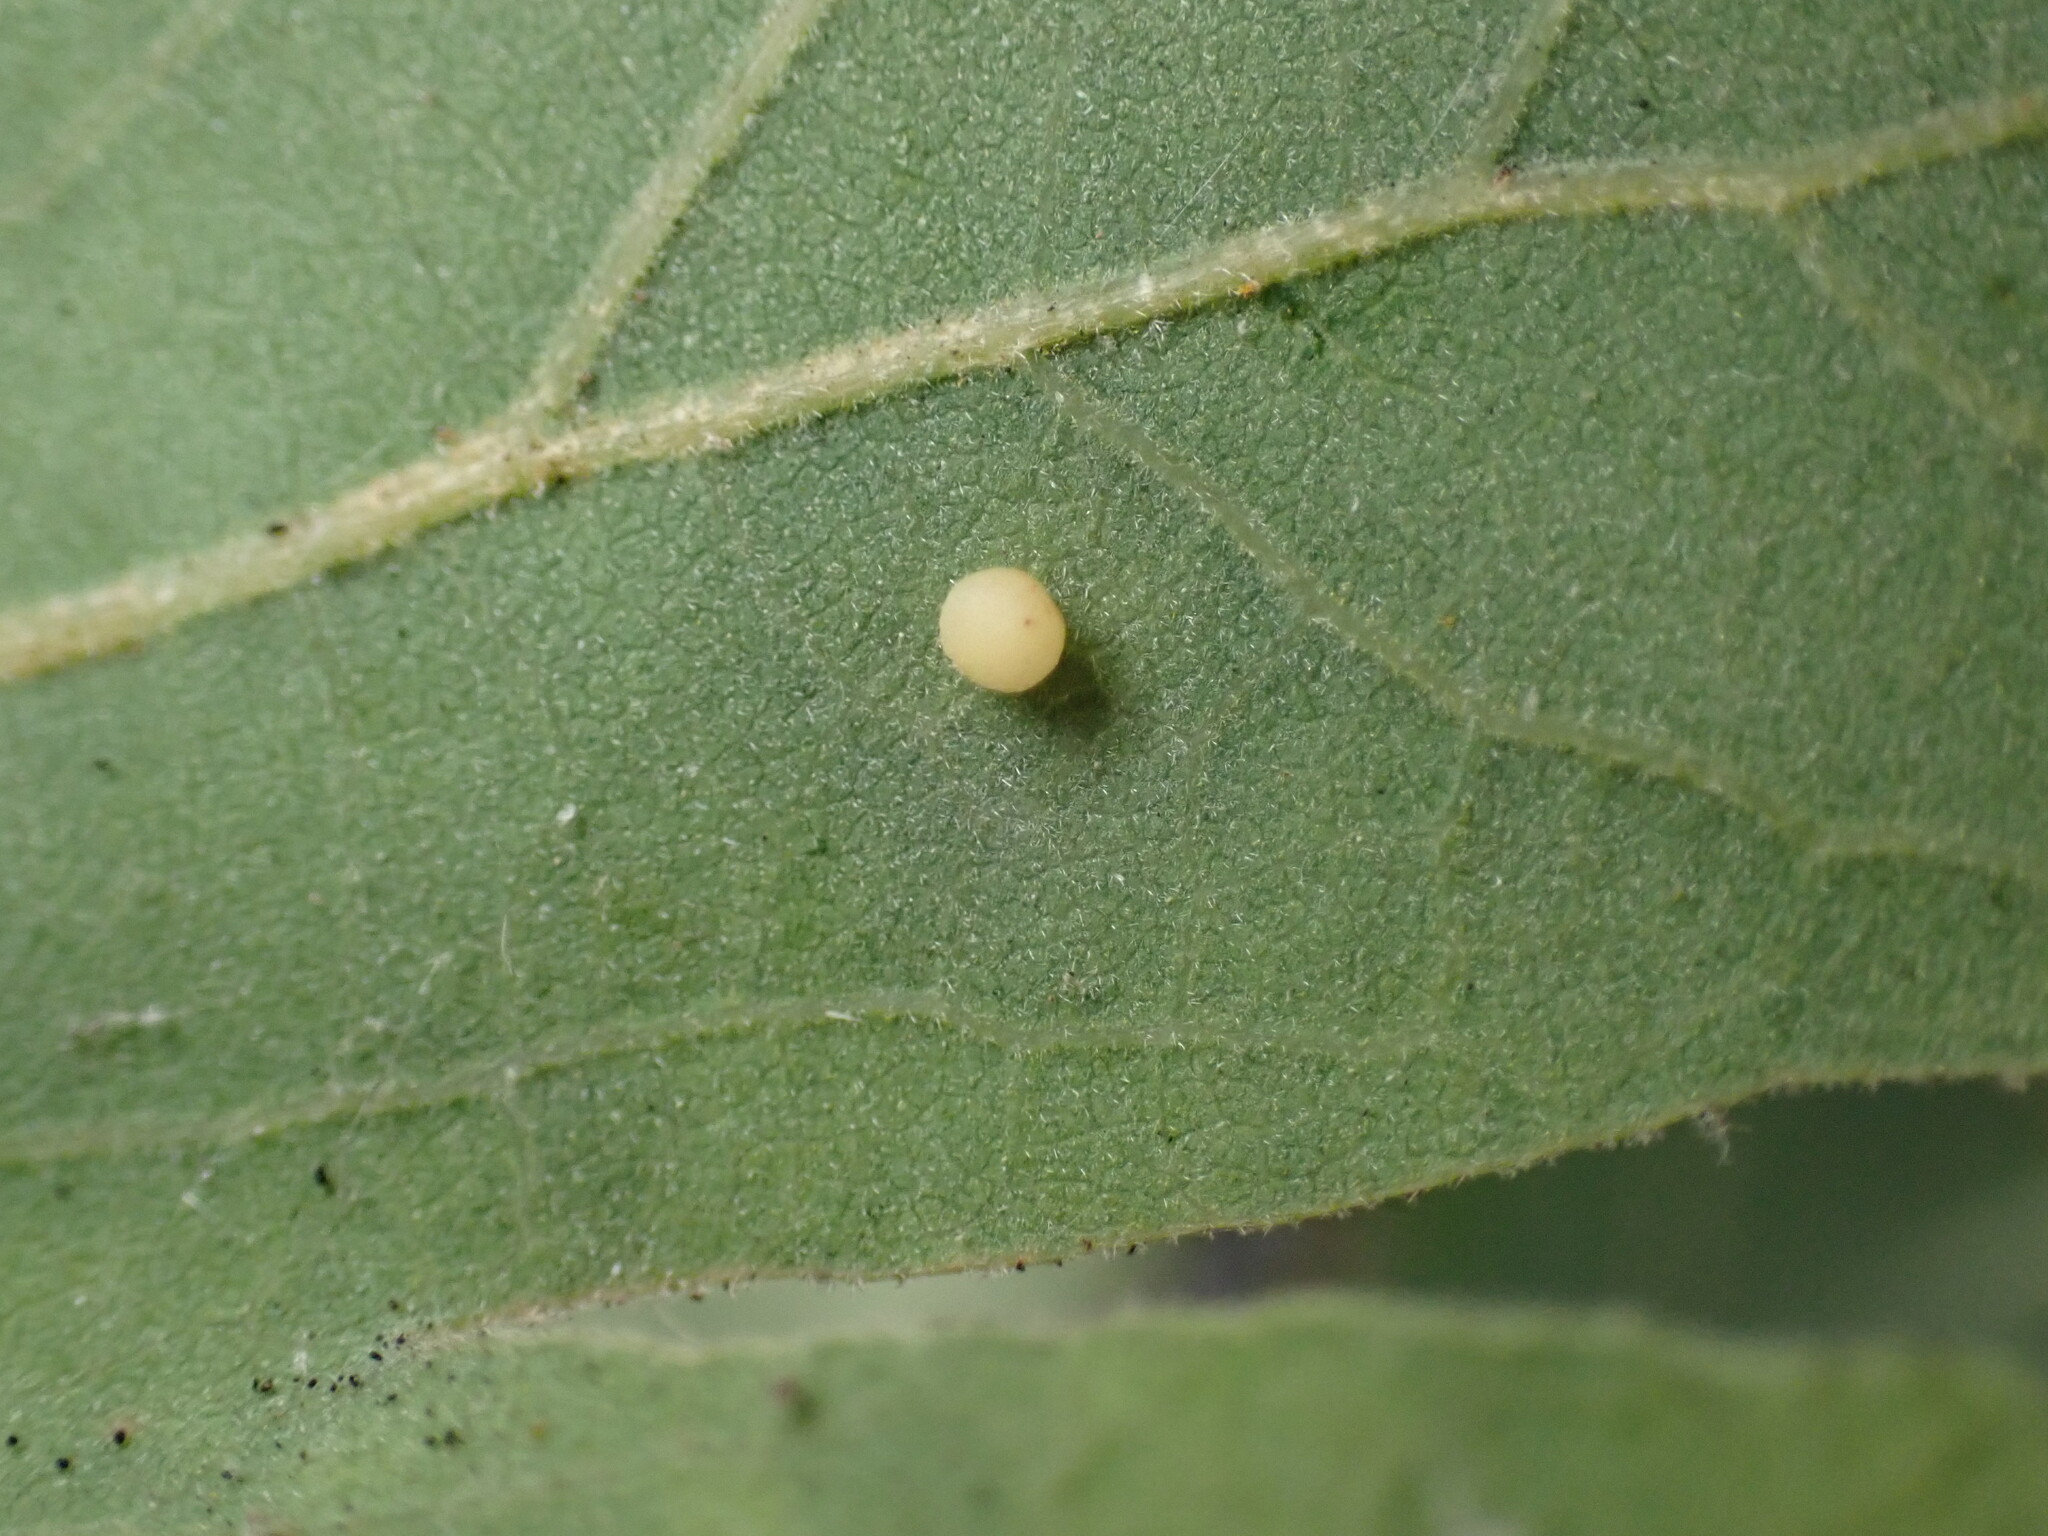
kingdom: Animalia
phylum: Arthropoda
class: Insecta
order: Hymenoptera
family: Cynipidae
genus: Neuroterus
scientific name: Neuroterus saltarius
